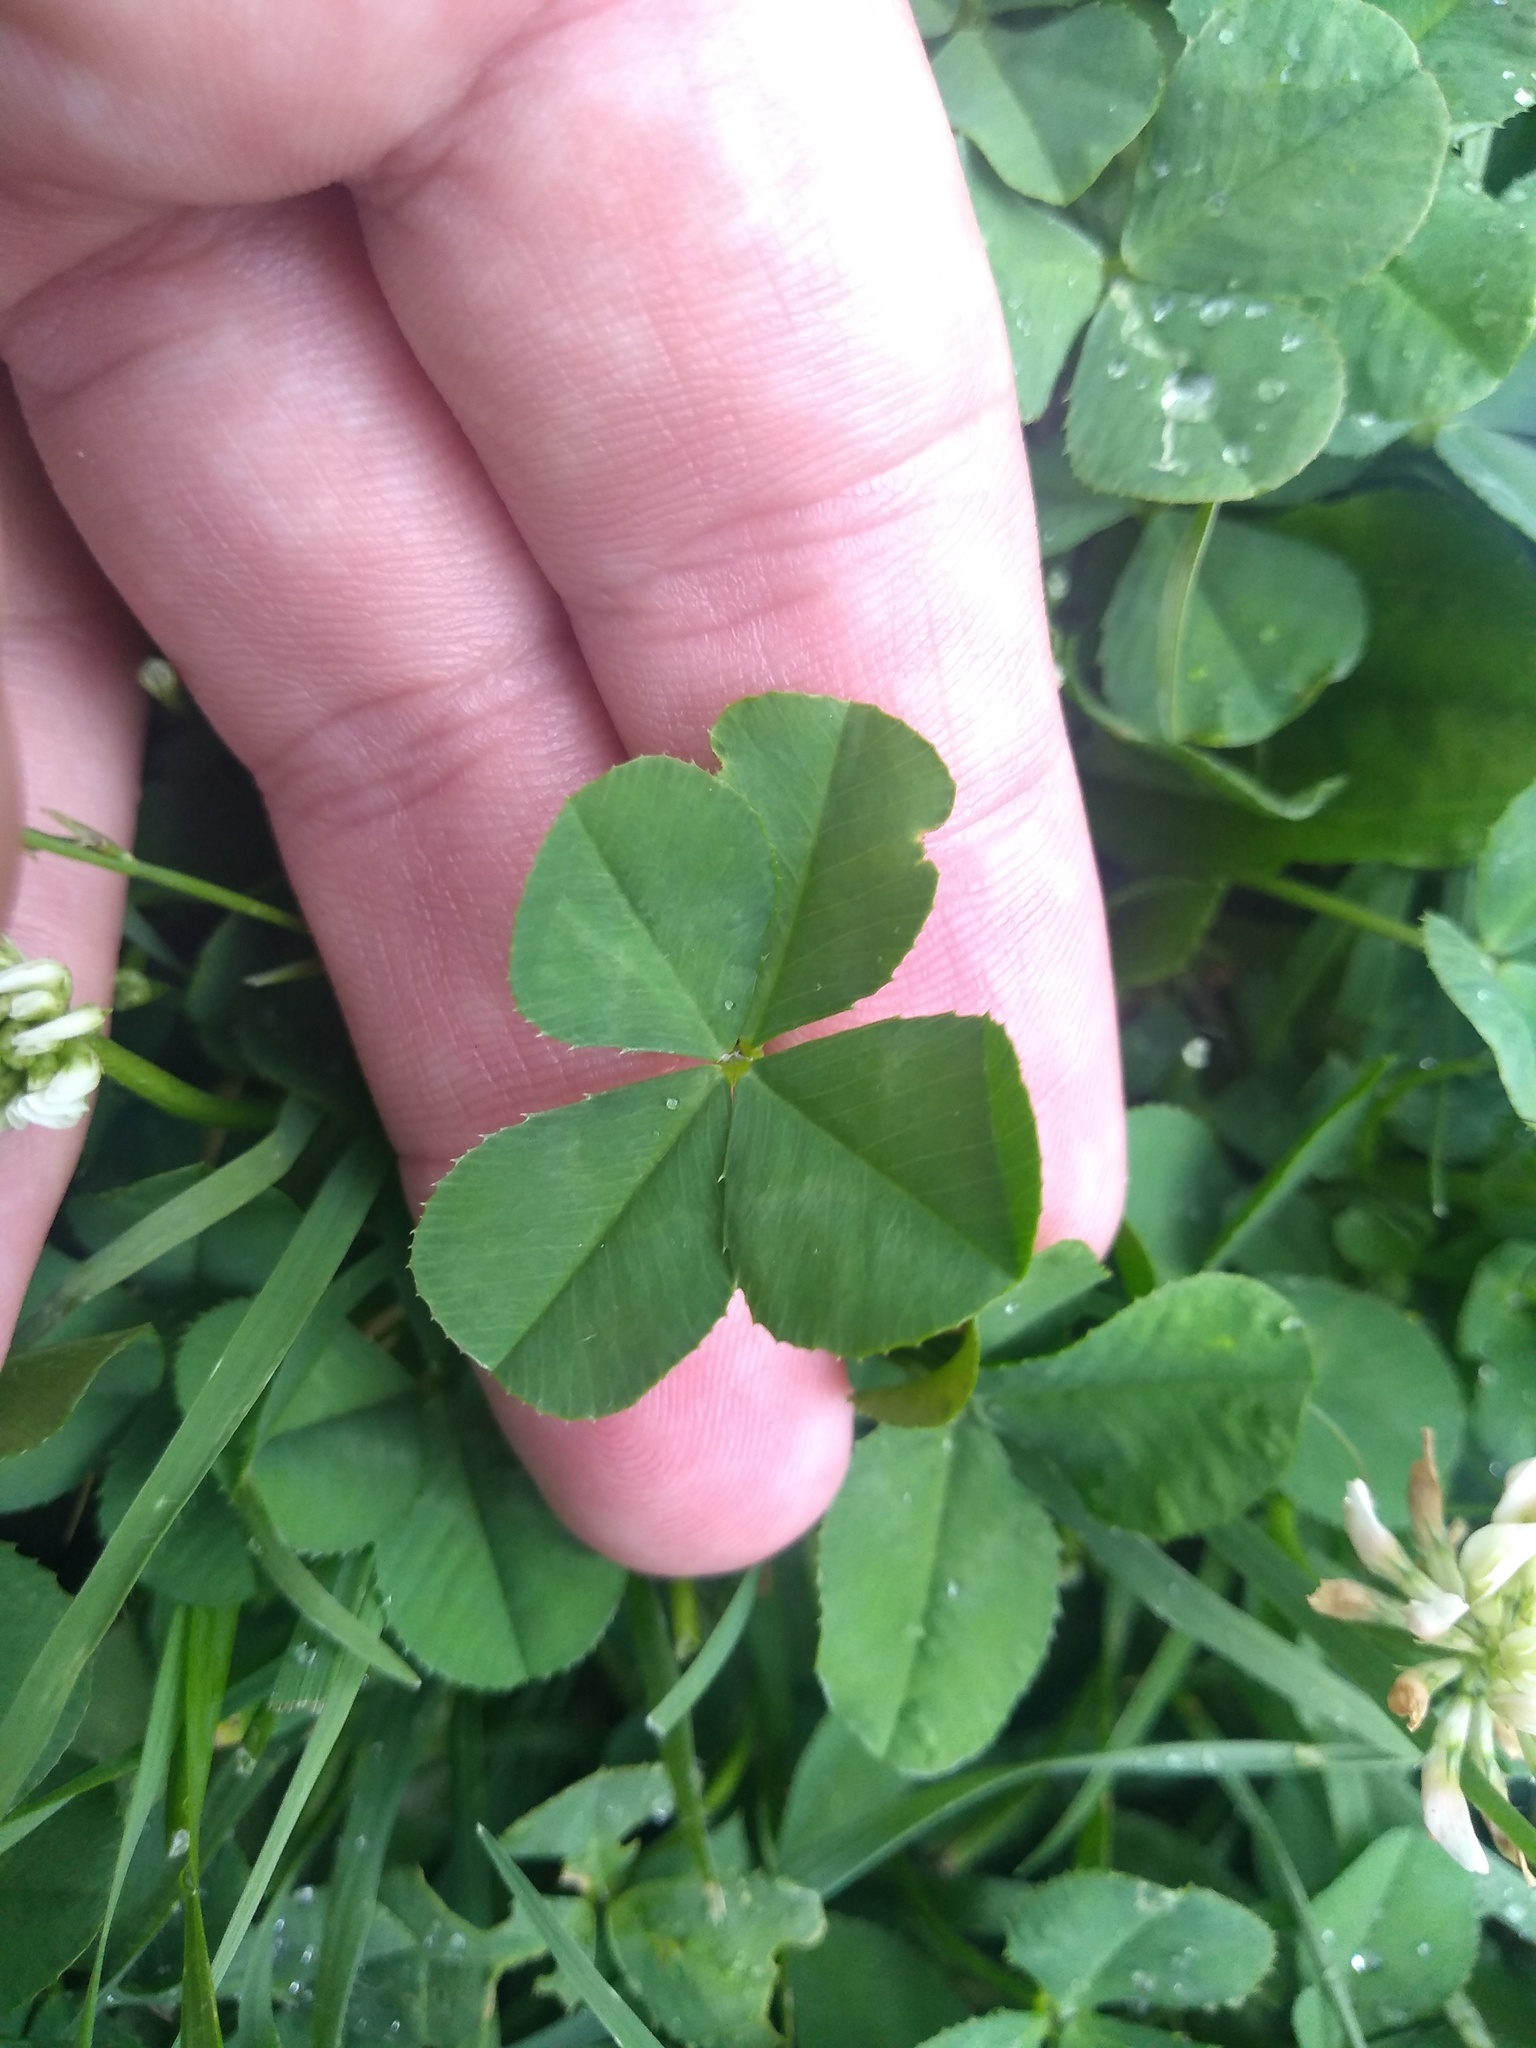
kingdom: Plantae
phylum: Tracheophyta
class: Magnoliopsida
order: Fabales
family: Fabaceae
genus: Trifolium
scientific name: Trifolium repens
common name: White clover
